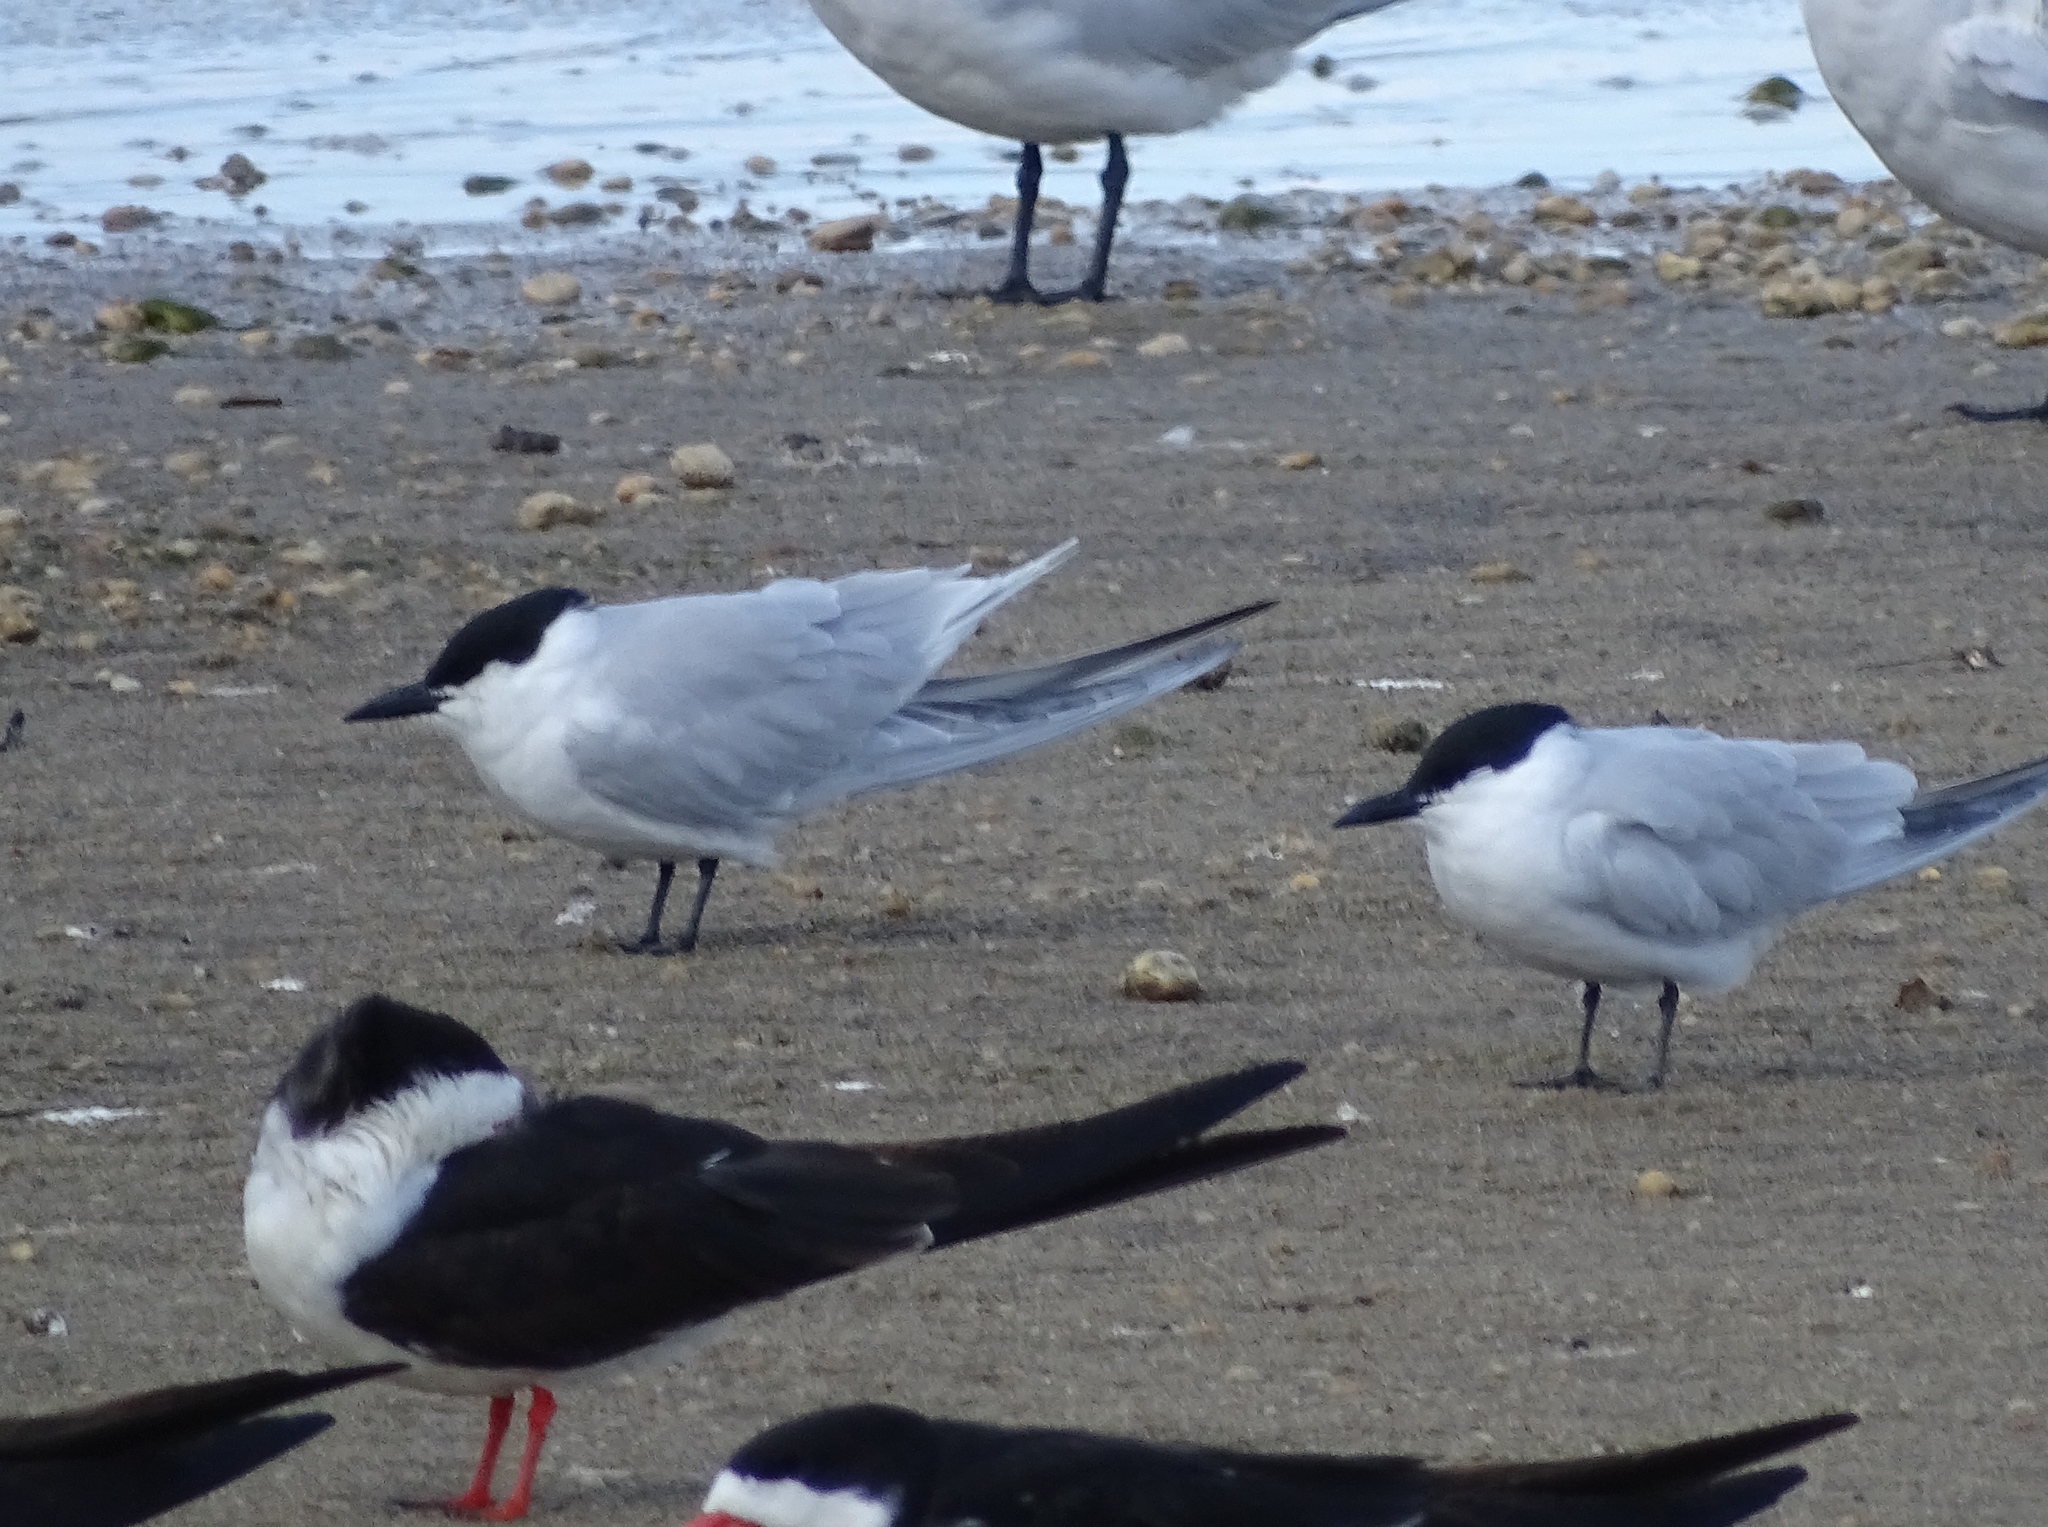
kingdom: Animalia
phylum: Chordata
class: Aves
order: Charadriiformes
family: Laridae
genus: Gelochelidon
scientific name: Gelochelidon nilotica
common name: Gull-billed tern
